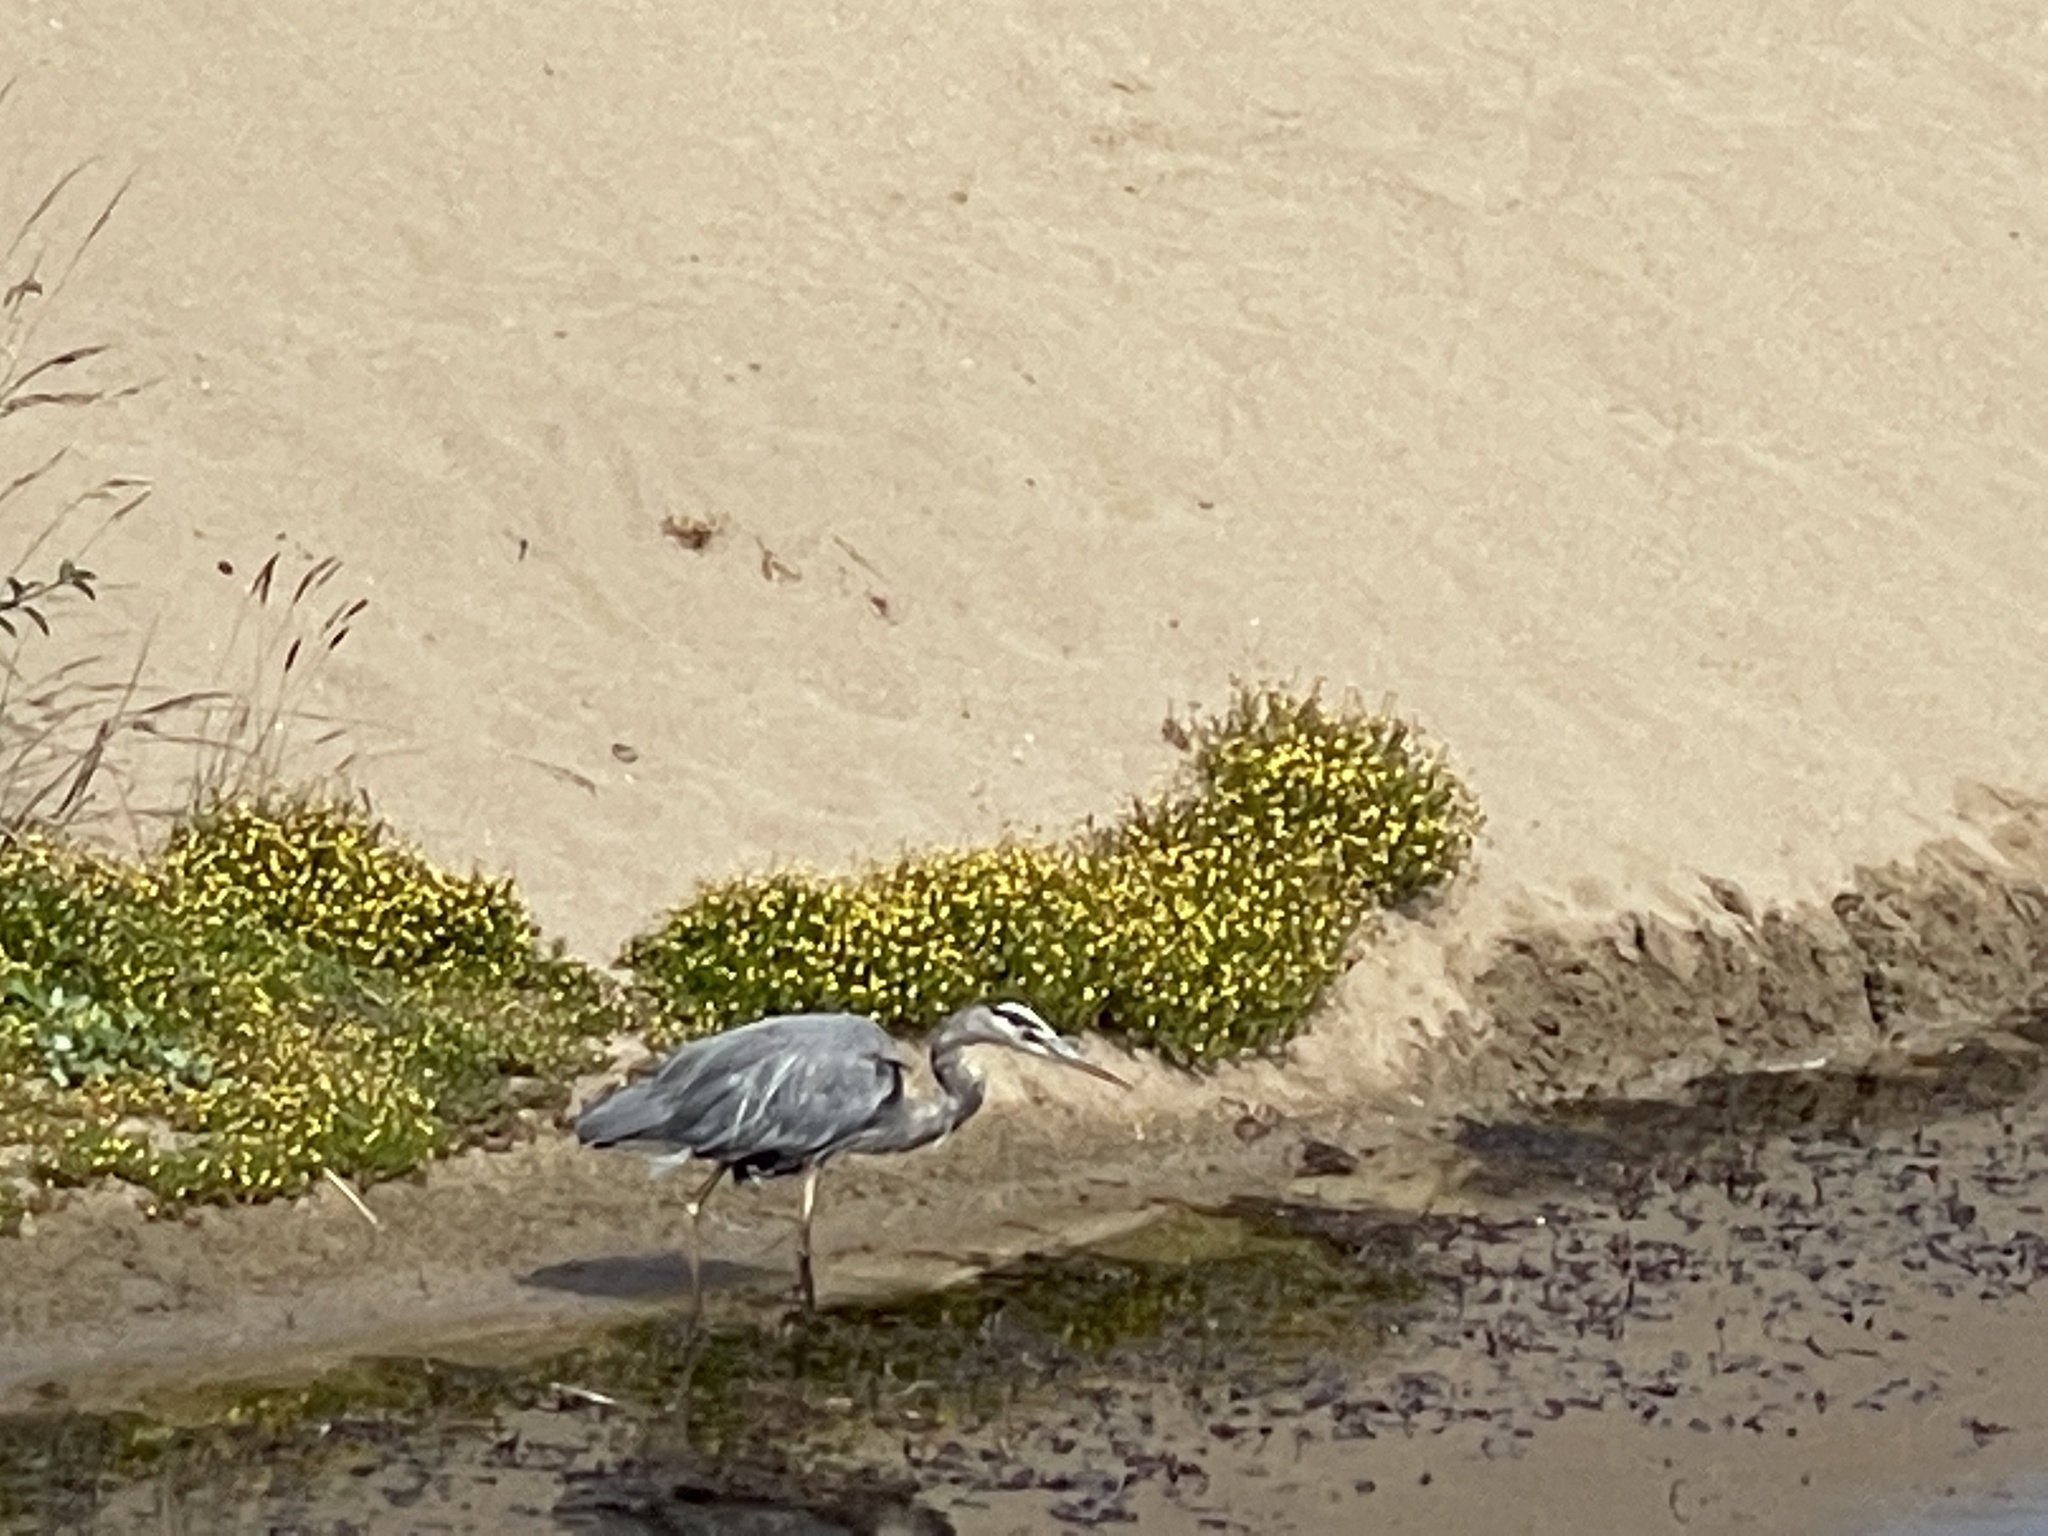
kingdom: Animalia
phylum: Chordata
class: Aves
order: Pelecaniformes
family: Ardeidae
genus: Ardea
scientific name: Ardea herodias
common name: Great blue heron
